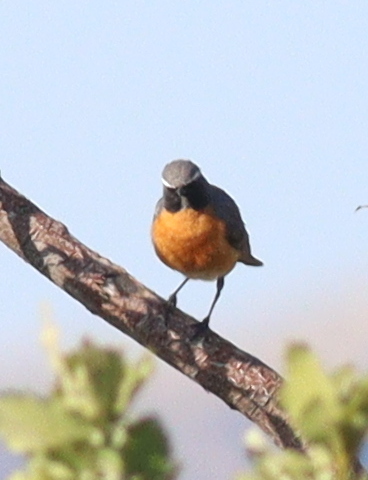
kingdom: Animalia
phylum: Chordata
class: Aves
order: Passeriformes
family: Muscicapidae
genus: Irania
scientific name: Irania gutturalis
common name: White-throated robin
